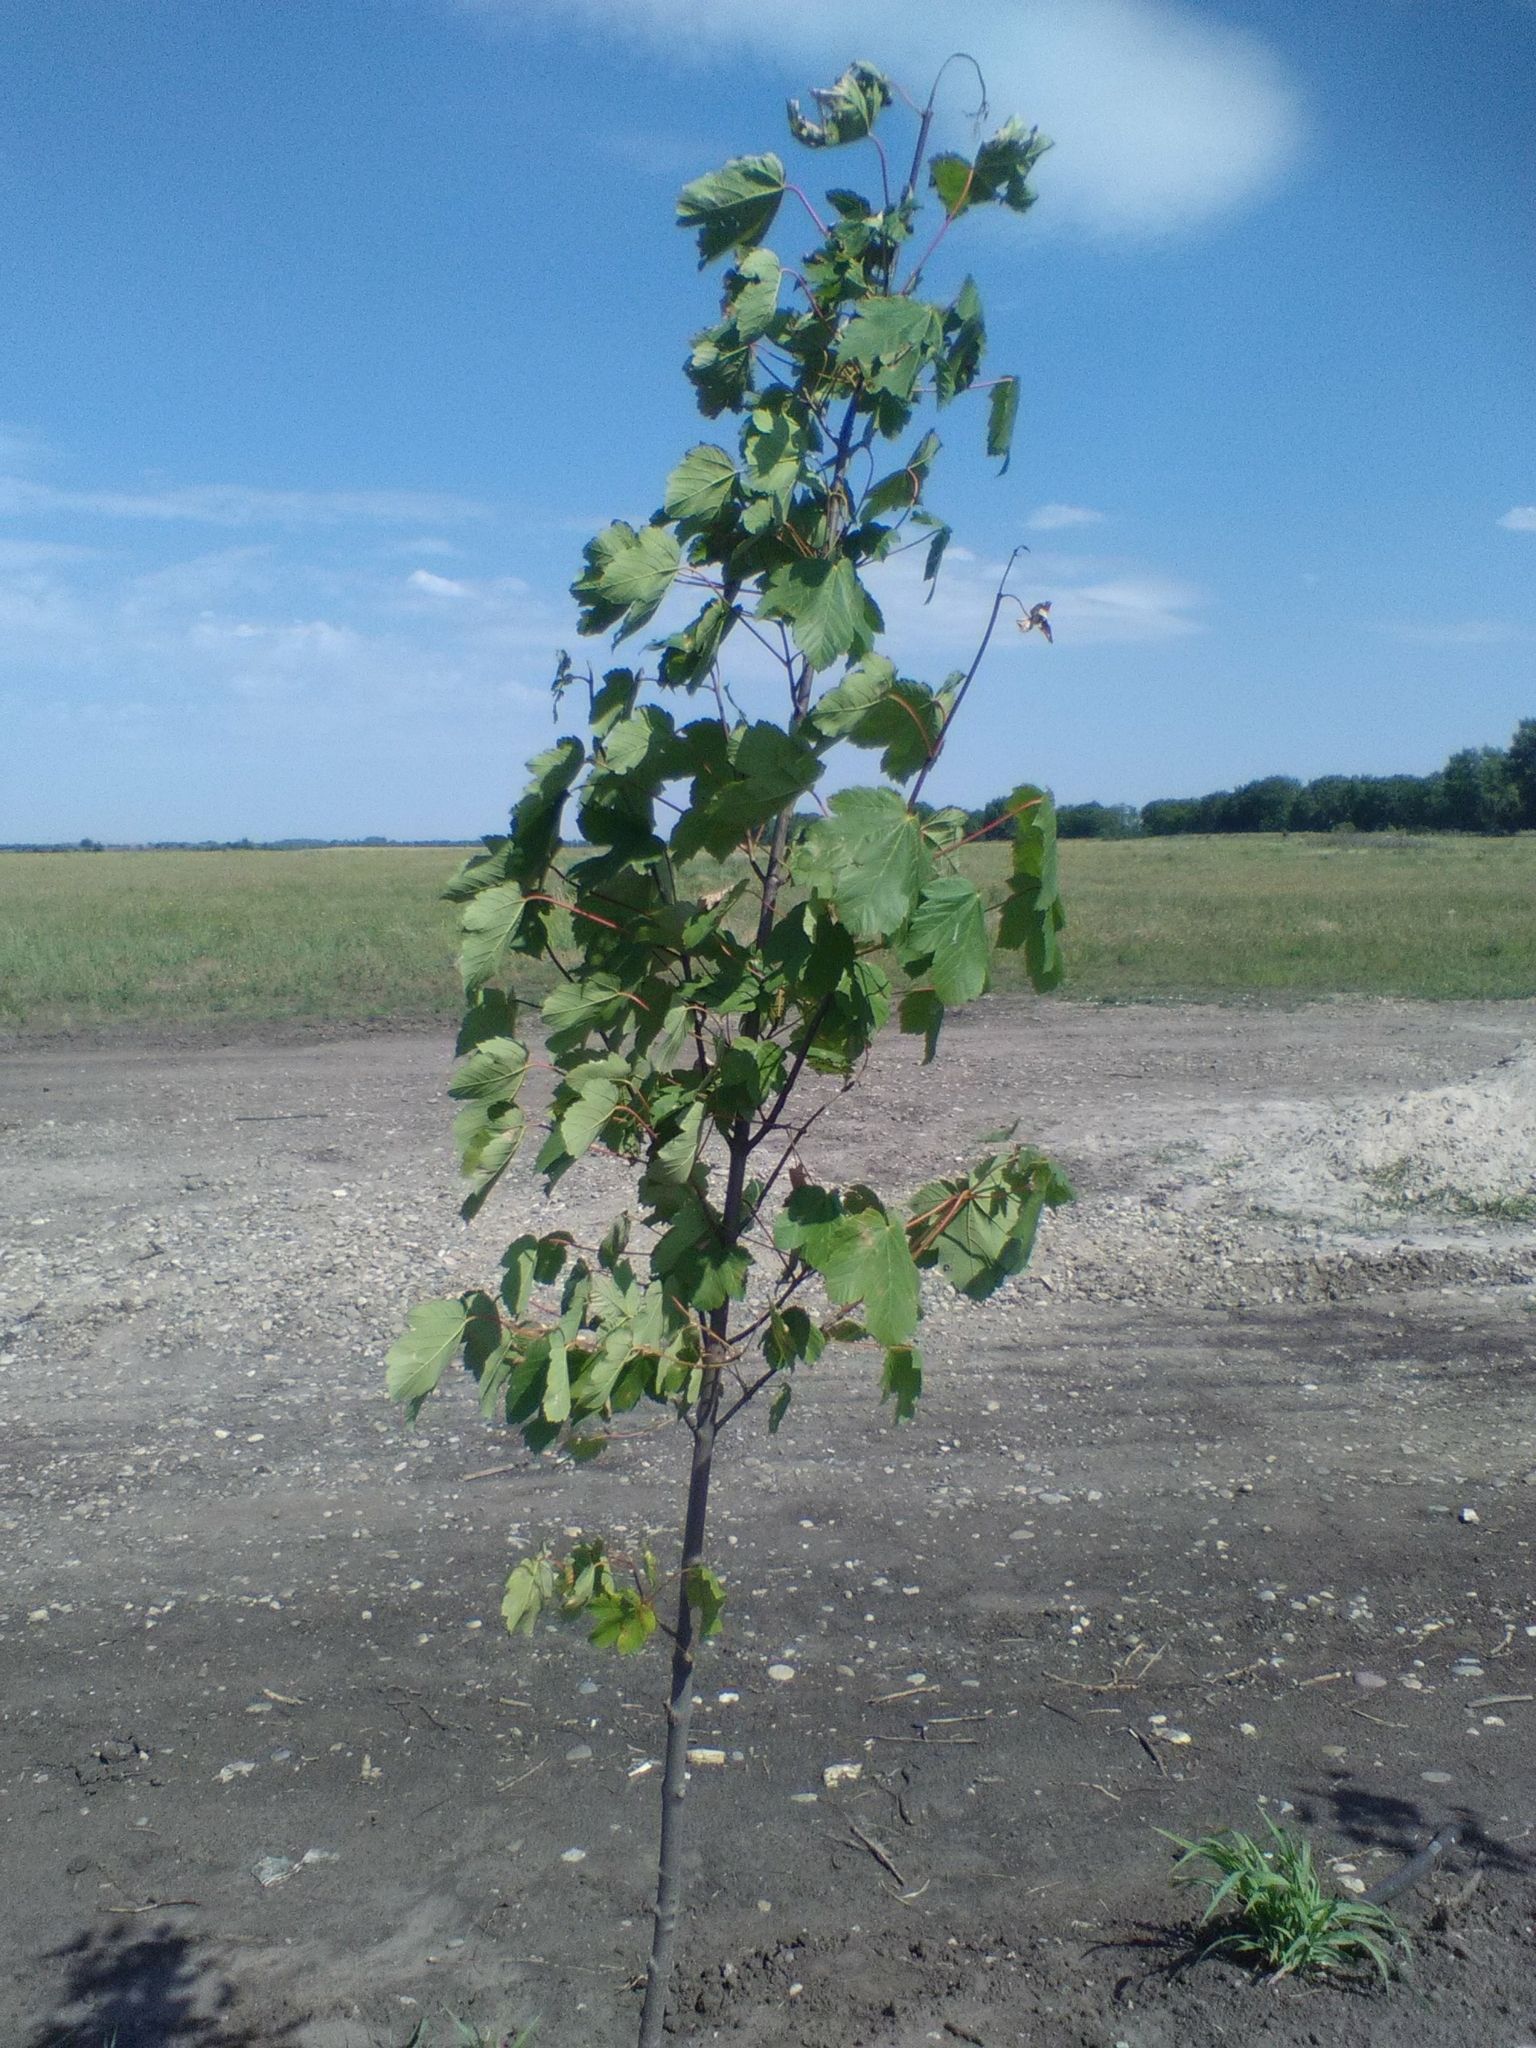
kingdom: Plantae
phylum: Tracheophyta
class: Magnoliopsida
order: Sapindales
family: Sapindaceae
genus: Acer
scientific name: Acer pseudoplatanus
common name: Sycamore
